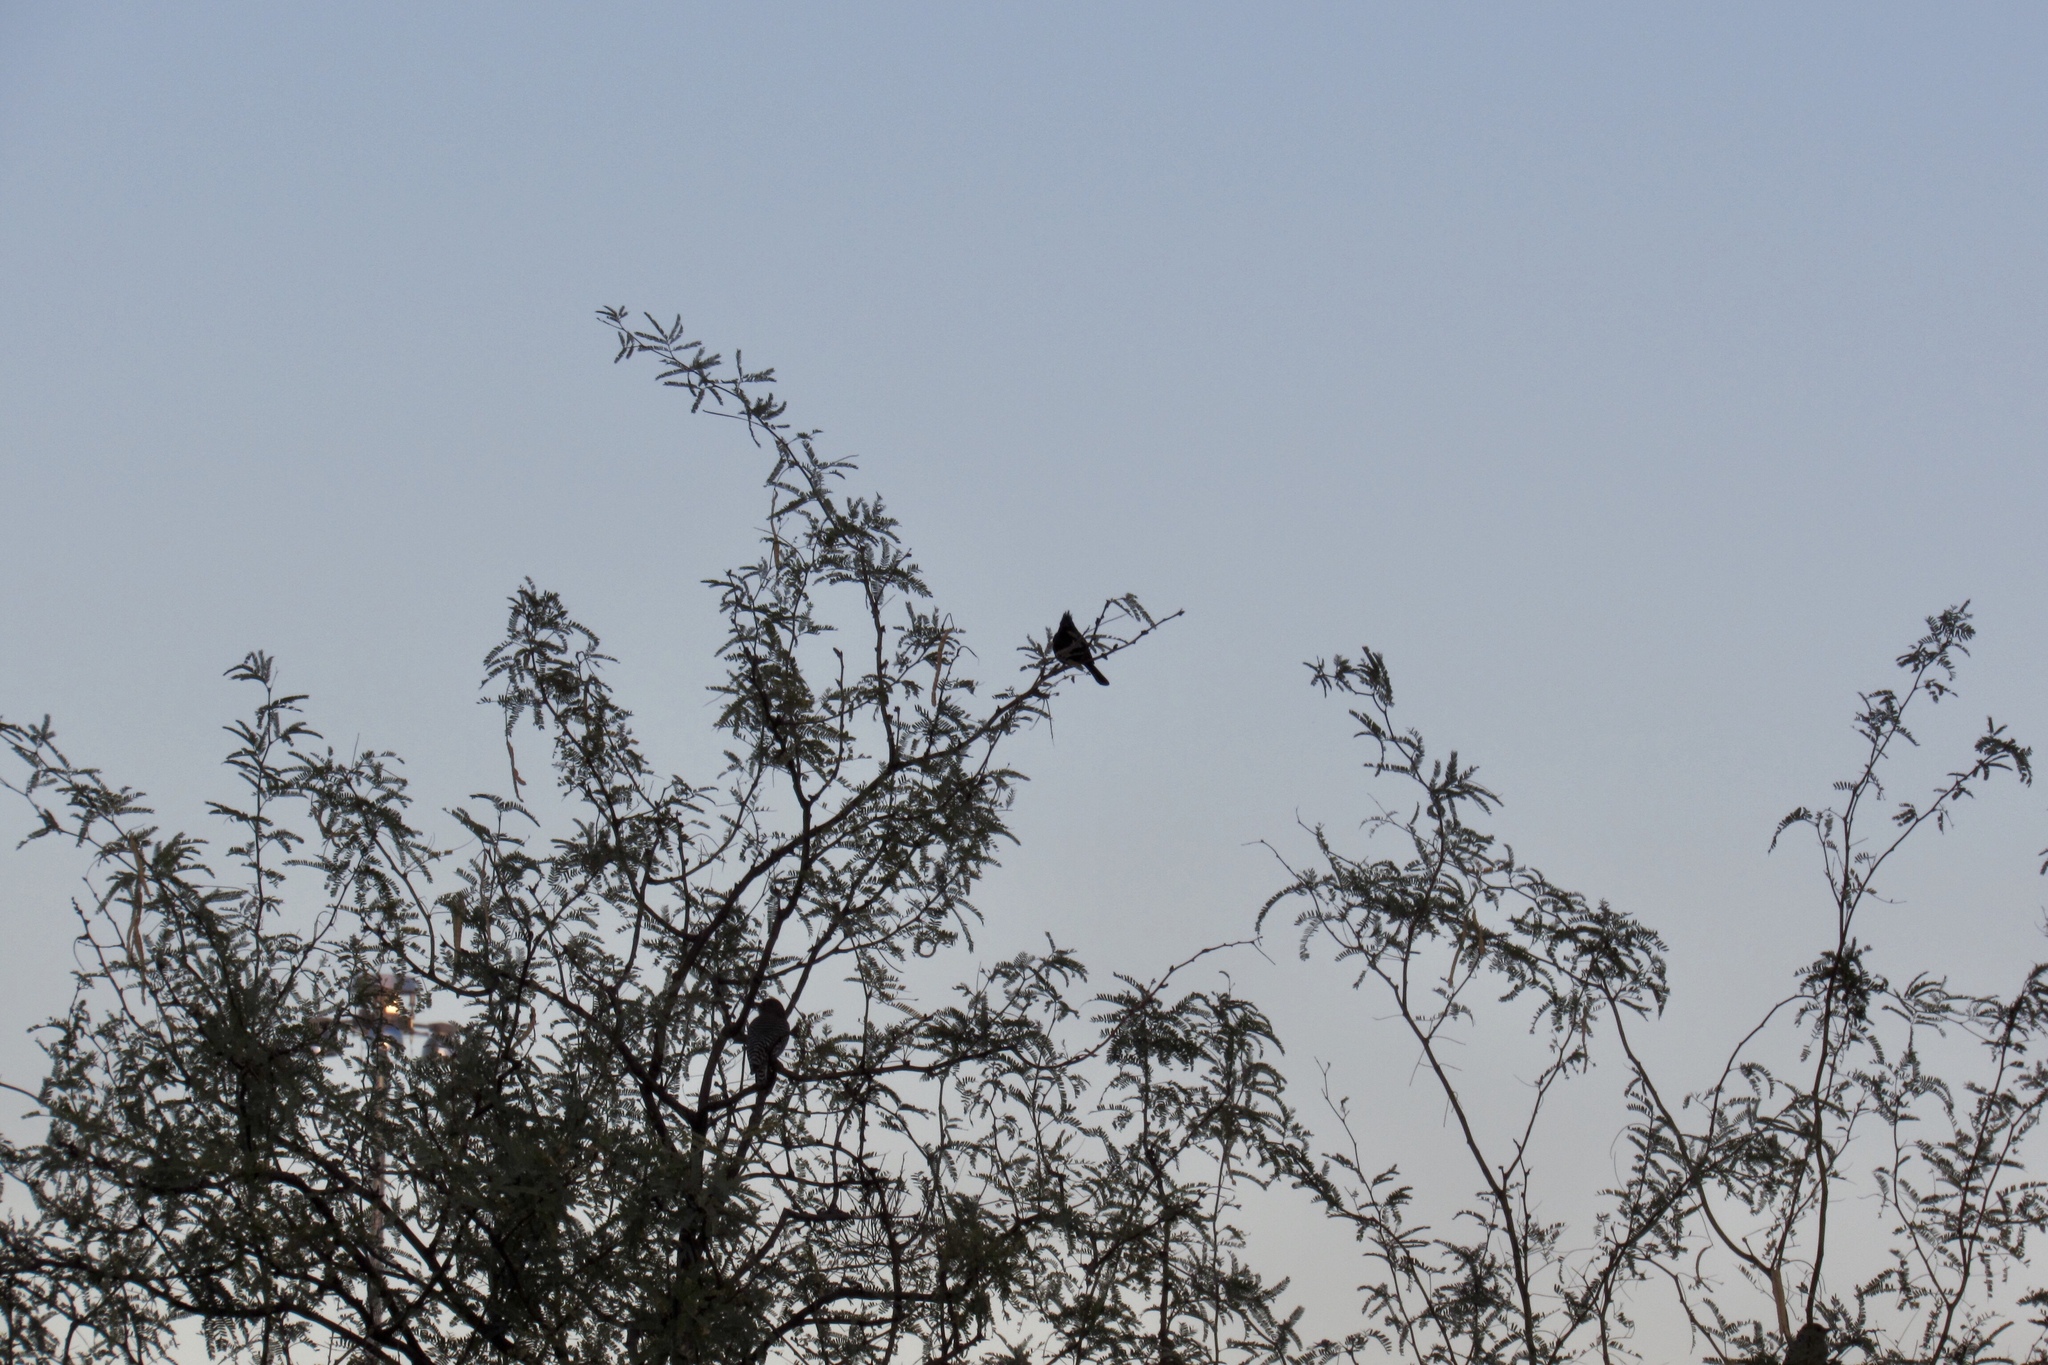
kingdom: Animalia
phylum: Chordata
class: Aves
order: Passeriformes
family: Ptilogonatidae
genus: Phainopepla
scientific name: Phainopepla nitens
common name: Phainopepla
